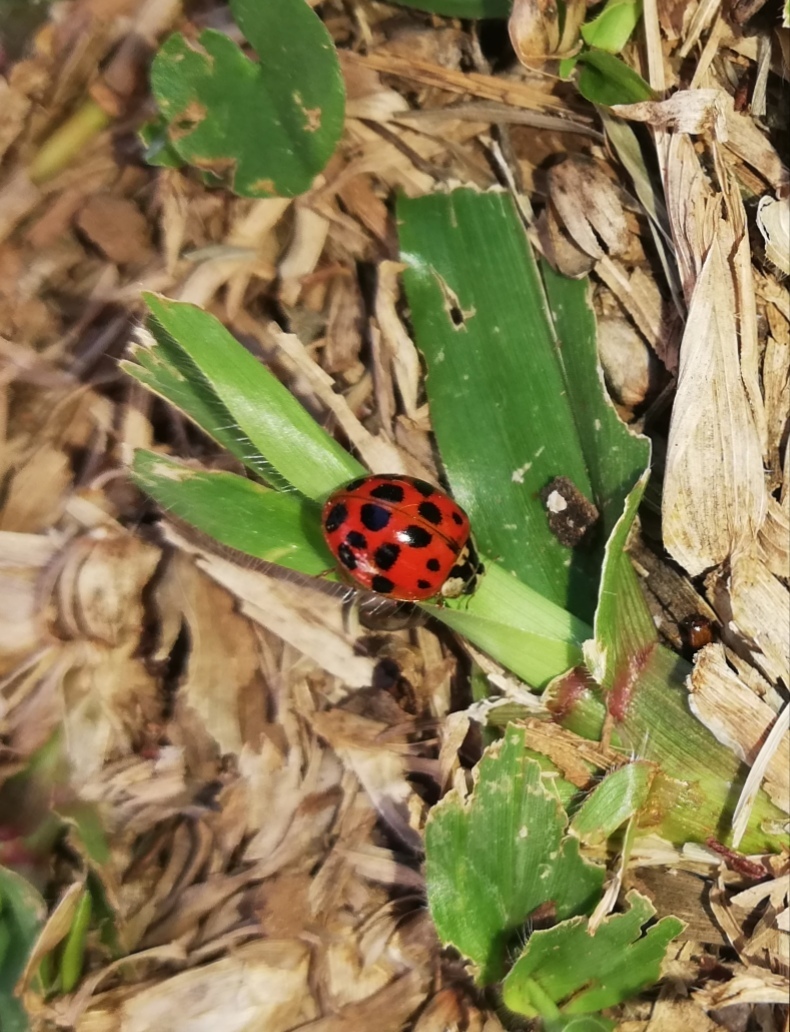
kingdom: Animalia
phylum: Arthropoda
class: Insecta
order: Coleoptera
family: Coccinellidae
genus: Harmonia
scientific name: Harmonia axyridis
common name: Harlequin ladybird
